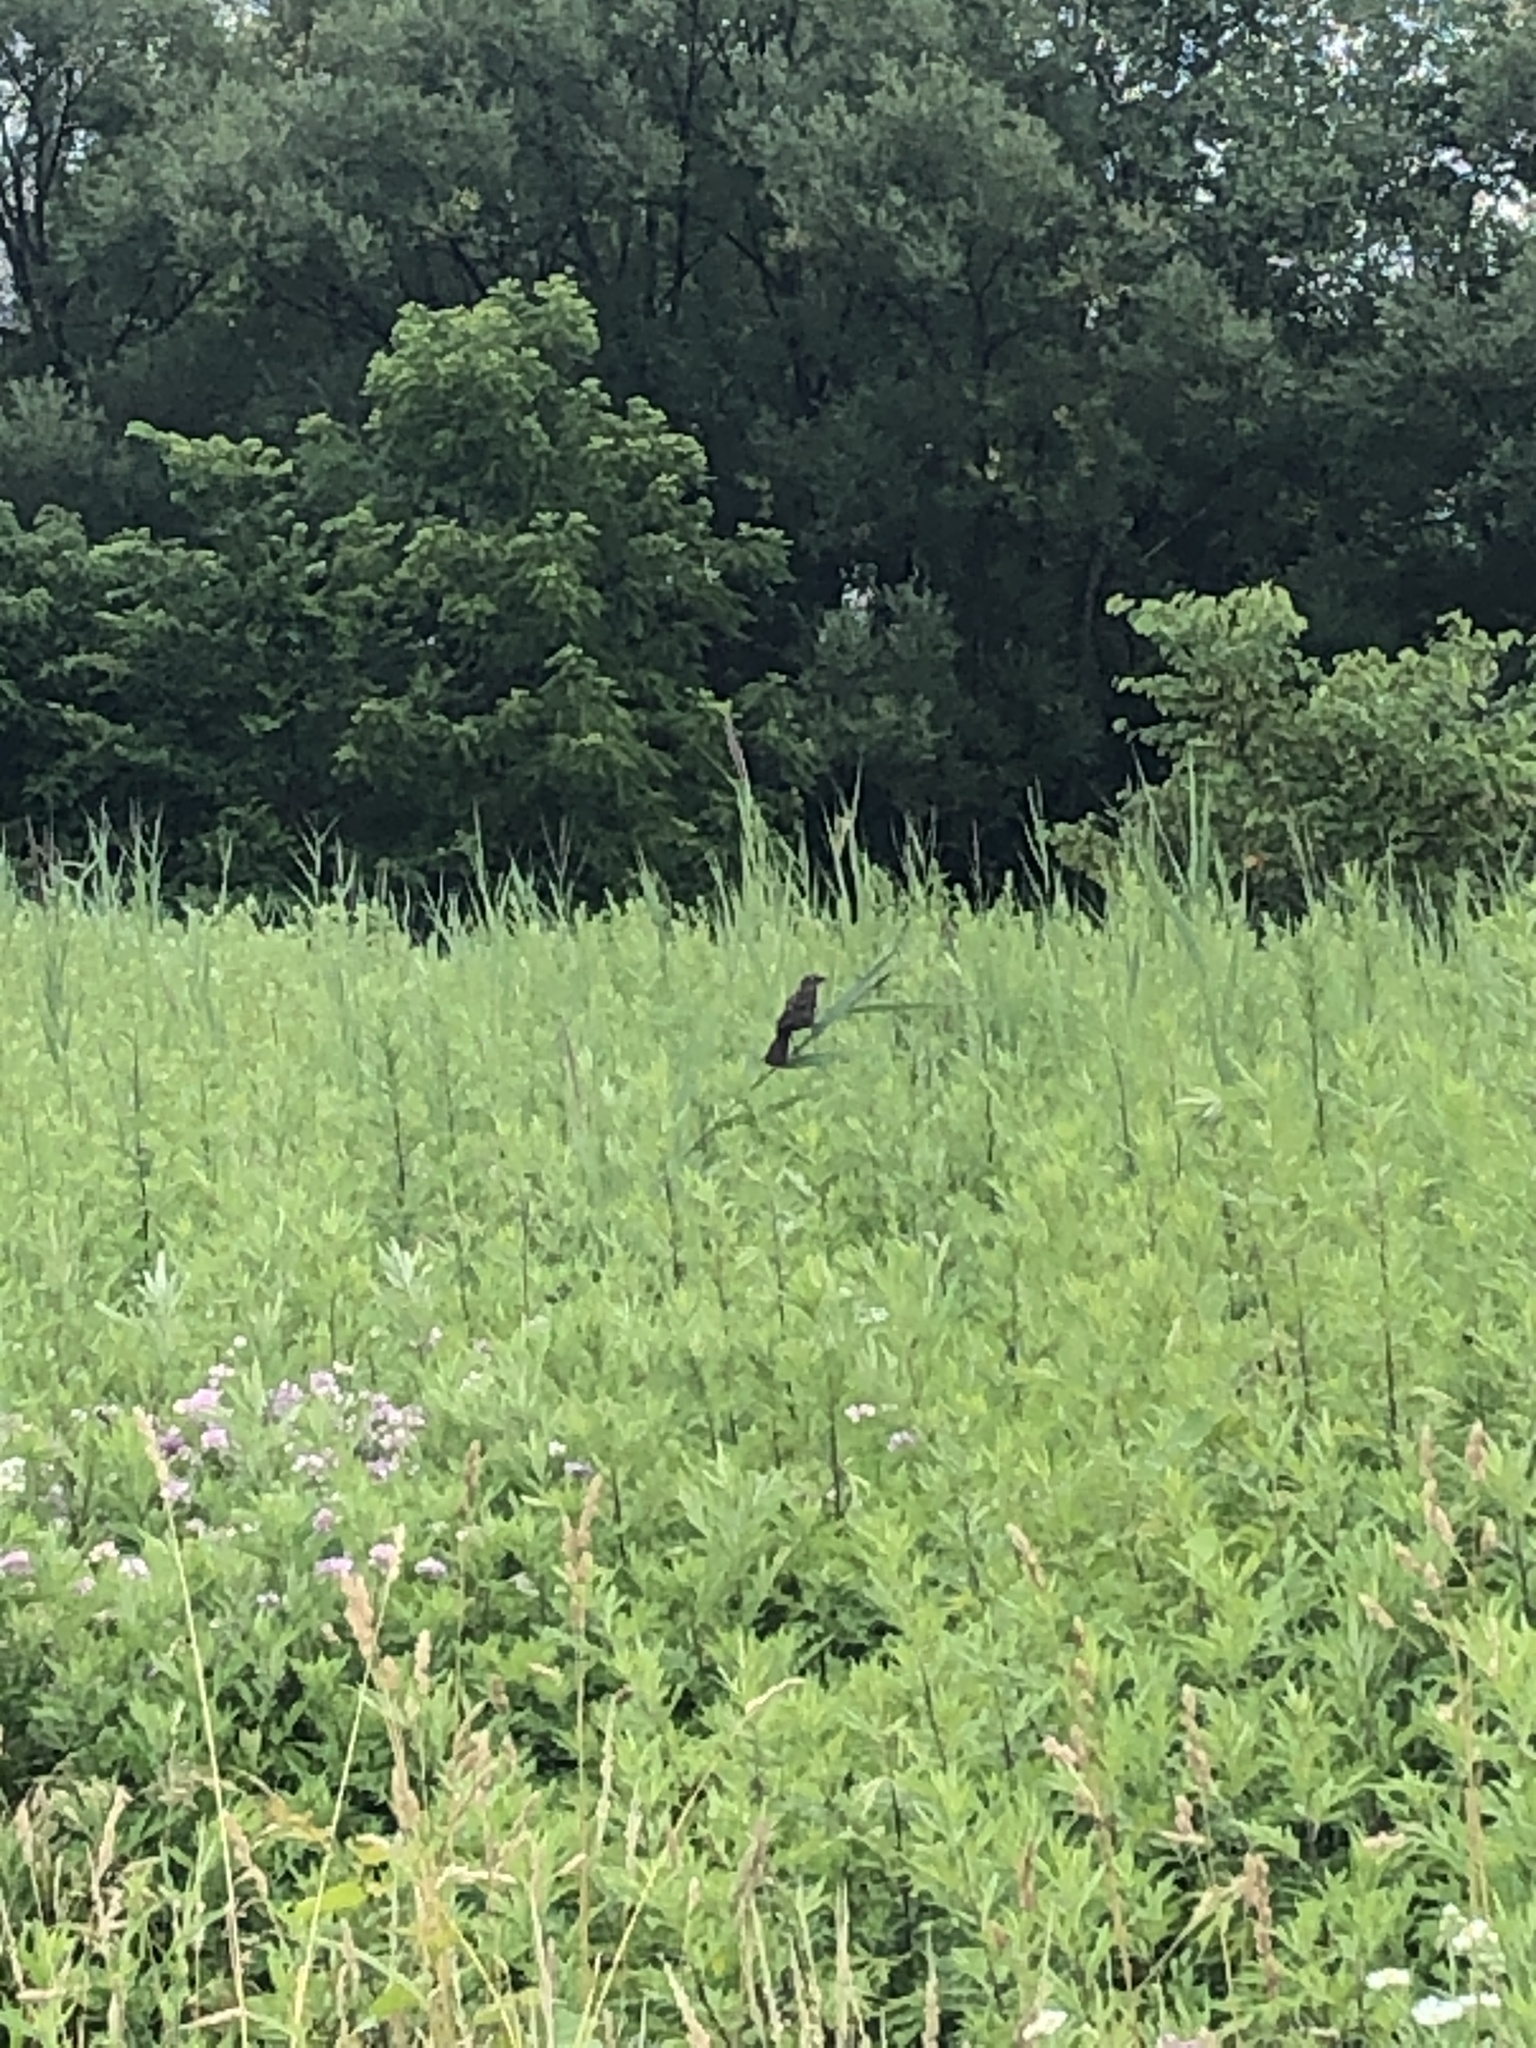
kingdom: Animalia
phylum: Chordata
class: Aves
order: Passeriformes
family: Icteridae
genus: Agelaius
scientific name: Agelaius phoeniceus
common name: Red-winged blackbird
